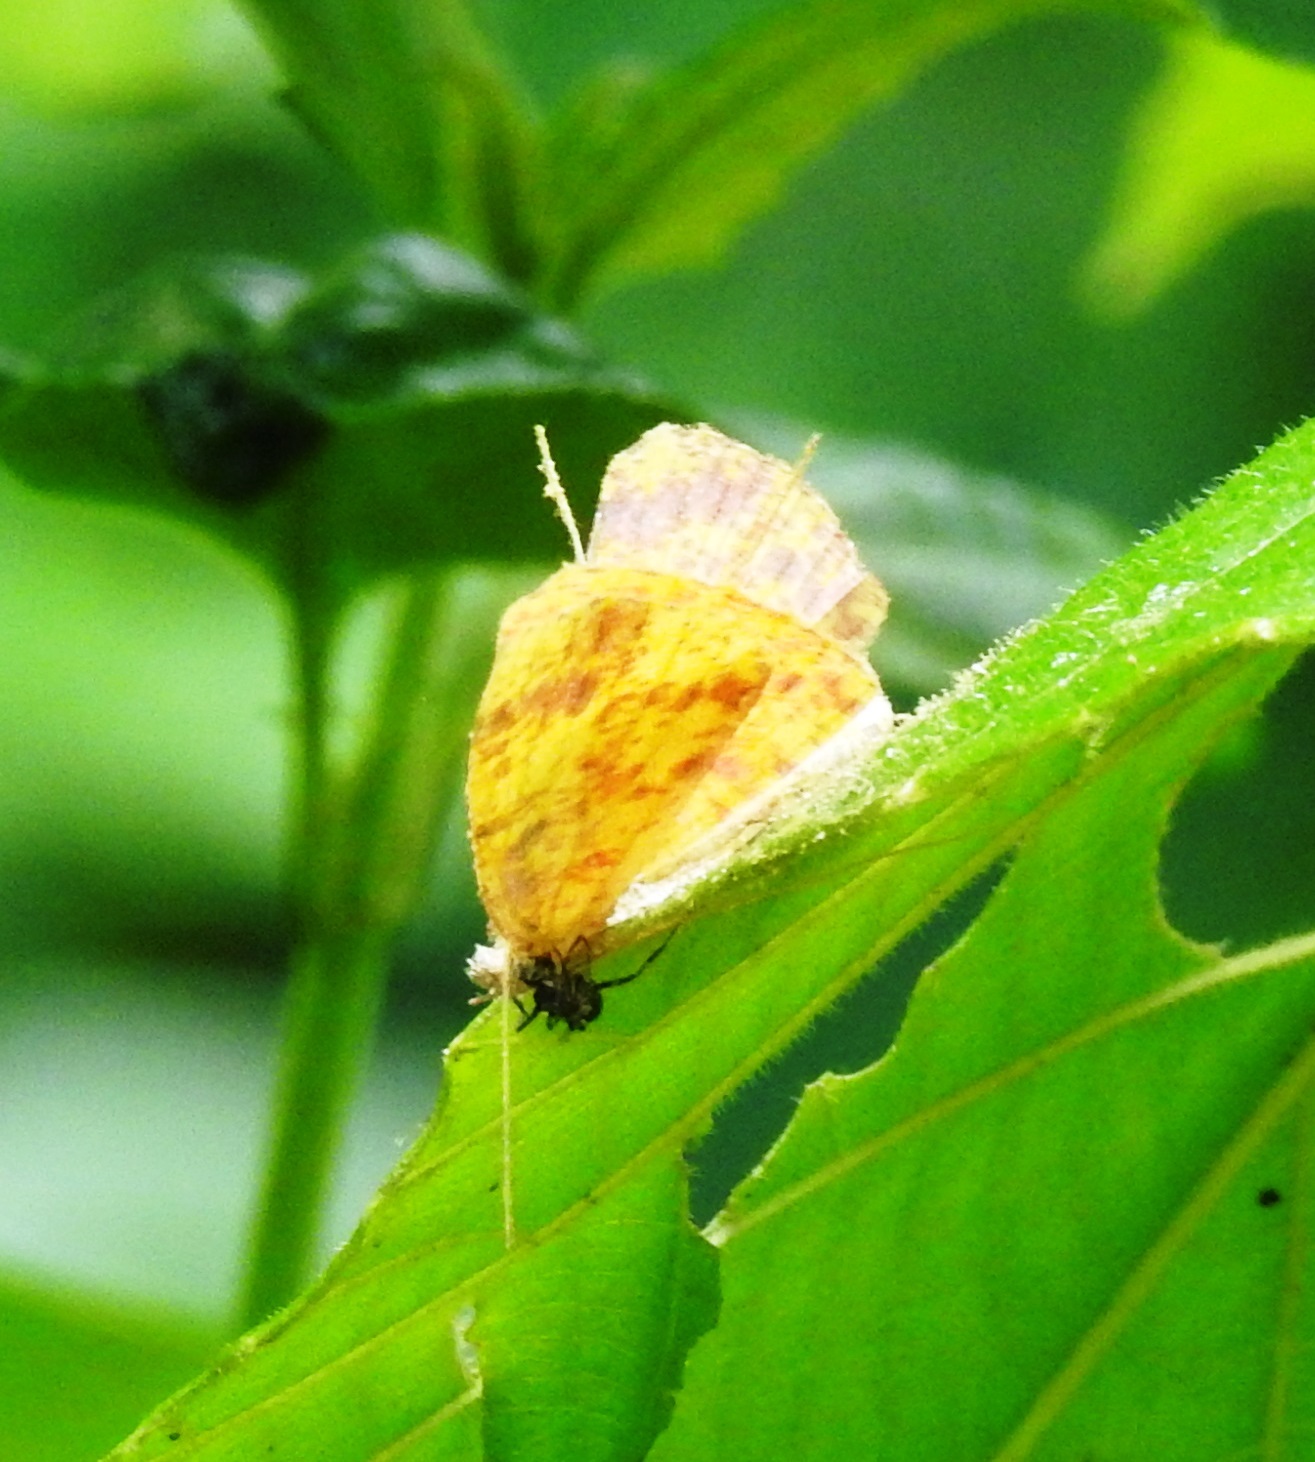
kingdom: Animalia
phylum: Arthropoda
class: Insecta
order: Lepidoptera
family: Callidulidae
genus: Tetragonus
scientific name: Tetragonus catamitus
